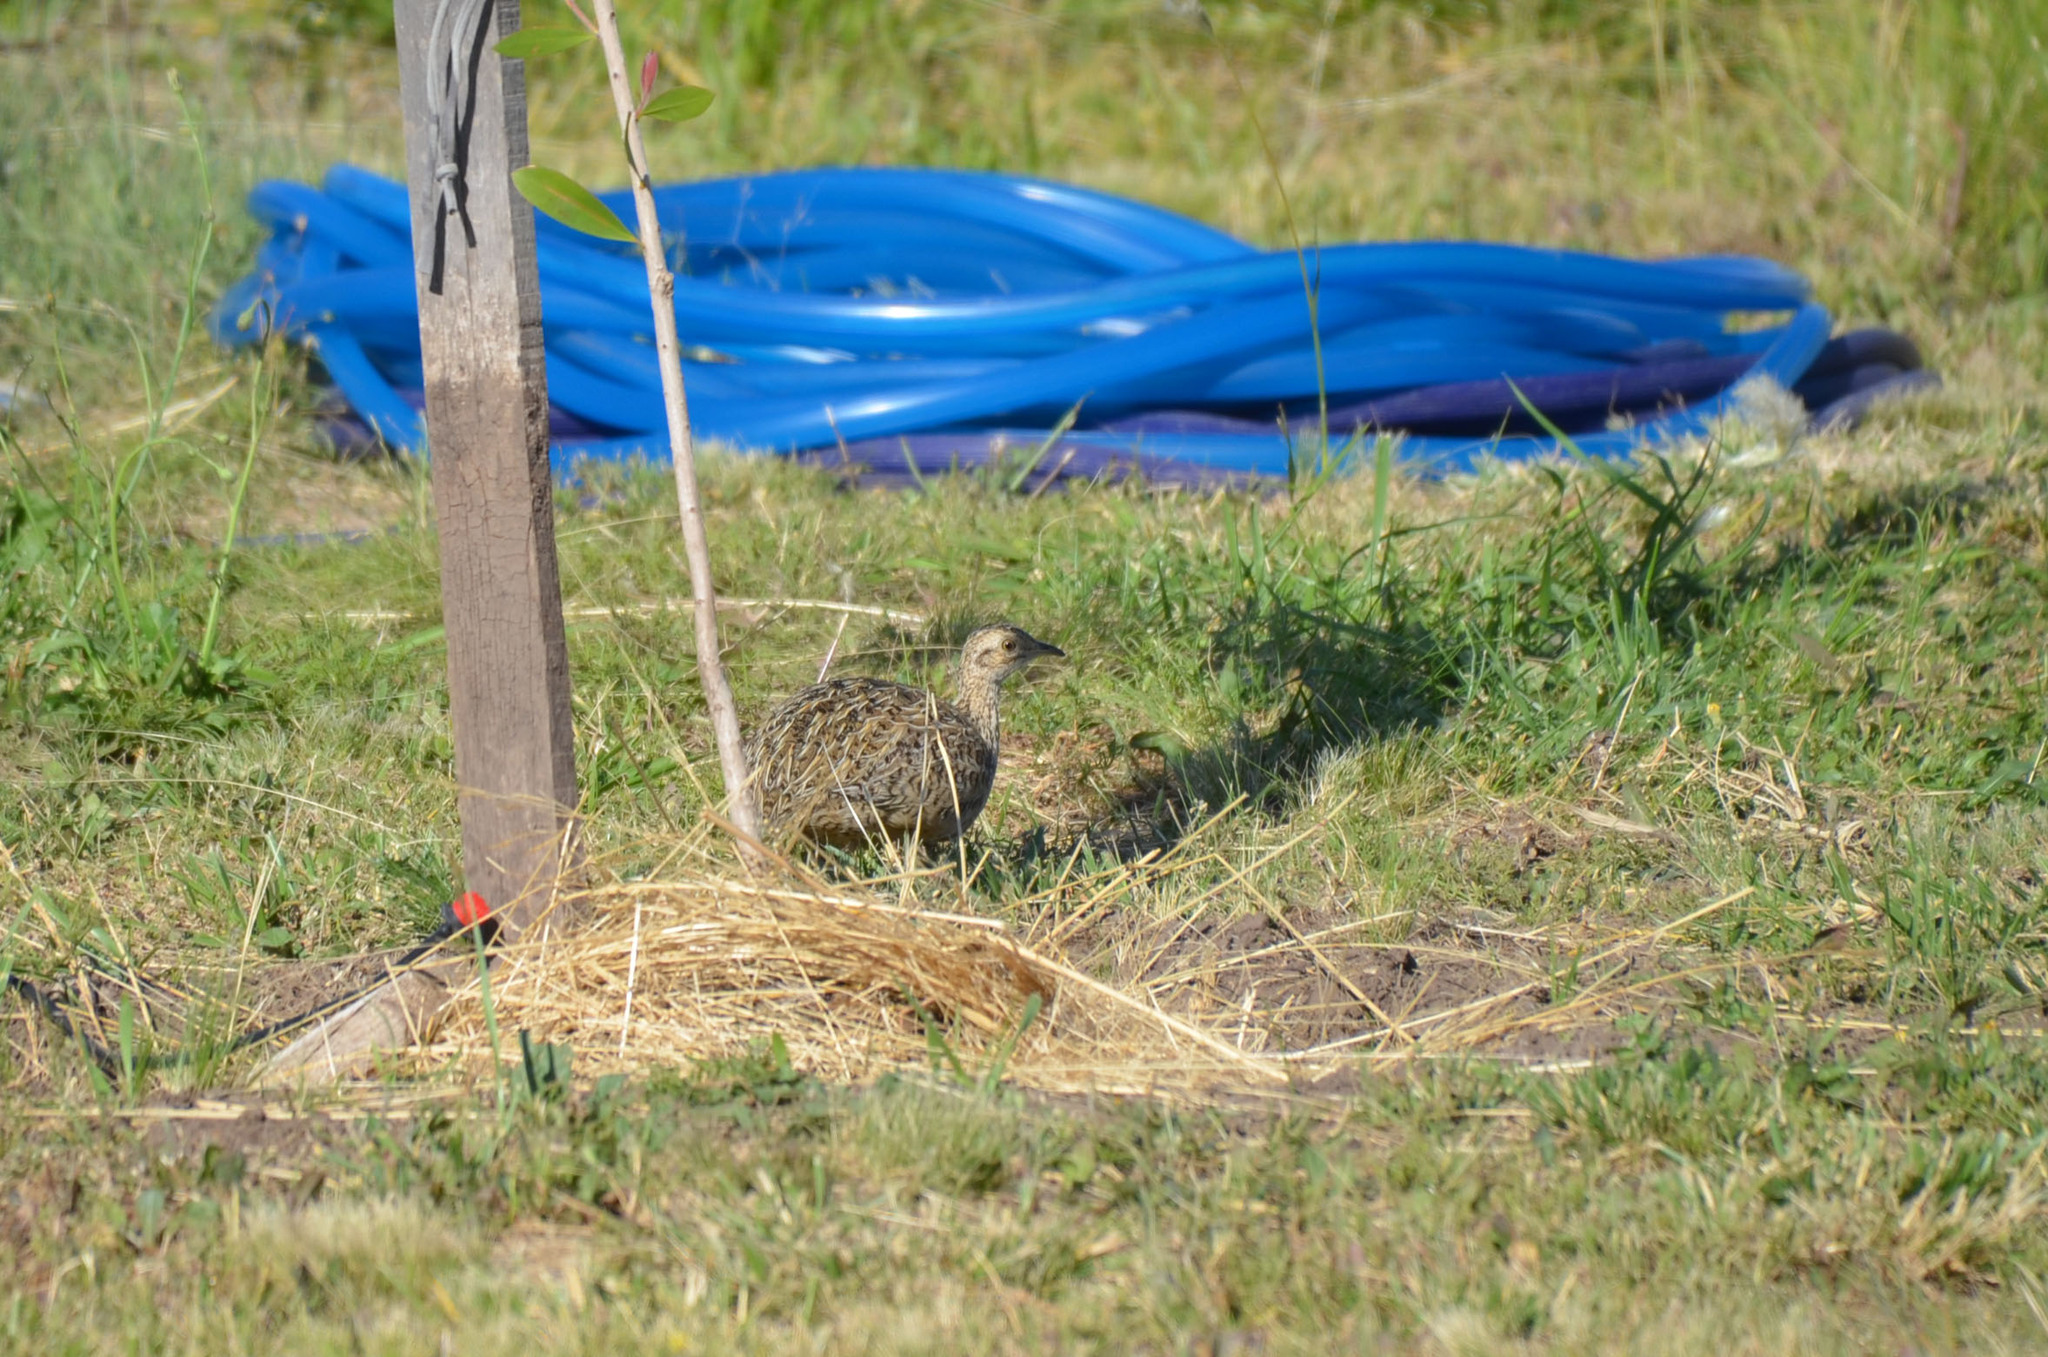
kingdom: Animalia
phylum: Chordata
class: Aves
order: Tinamiformes
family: Tinamidae
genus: Nothura
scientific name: Nothura maculosa
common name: Spotted nothura
